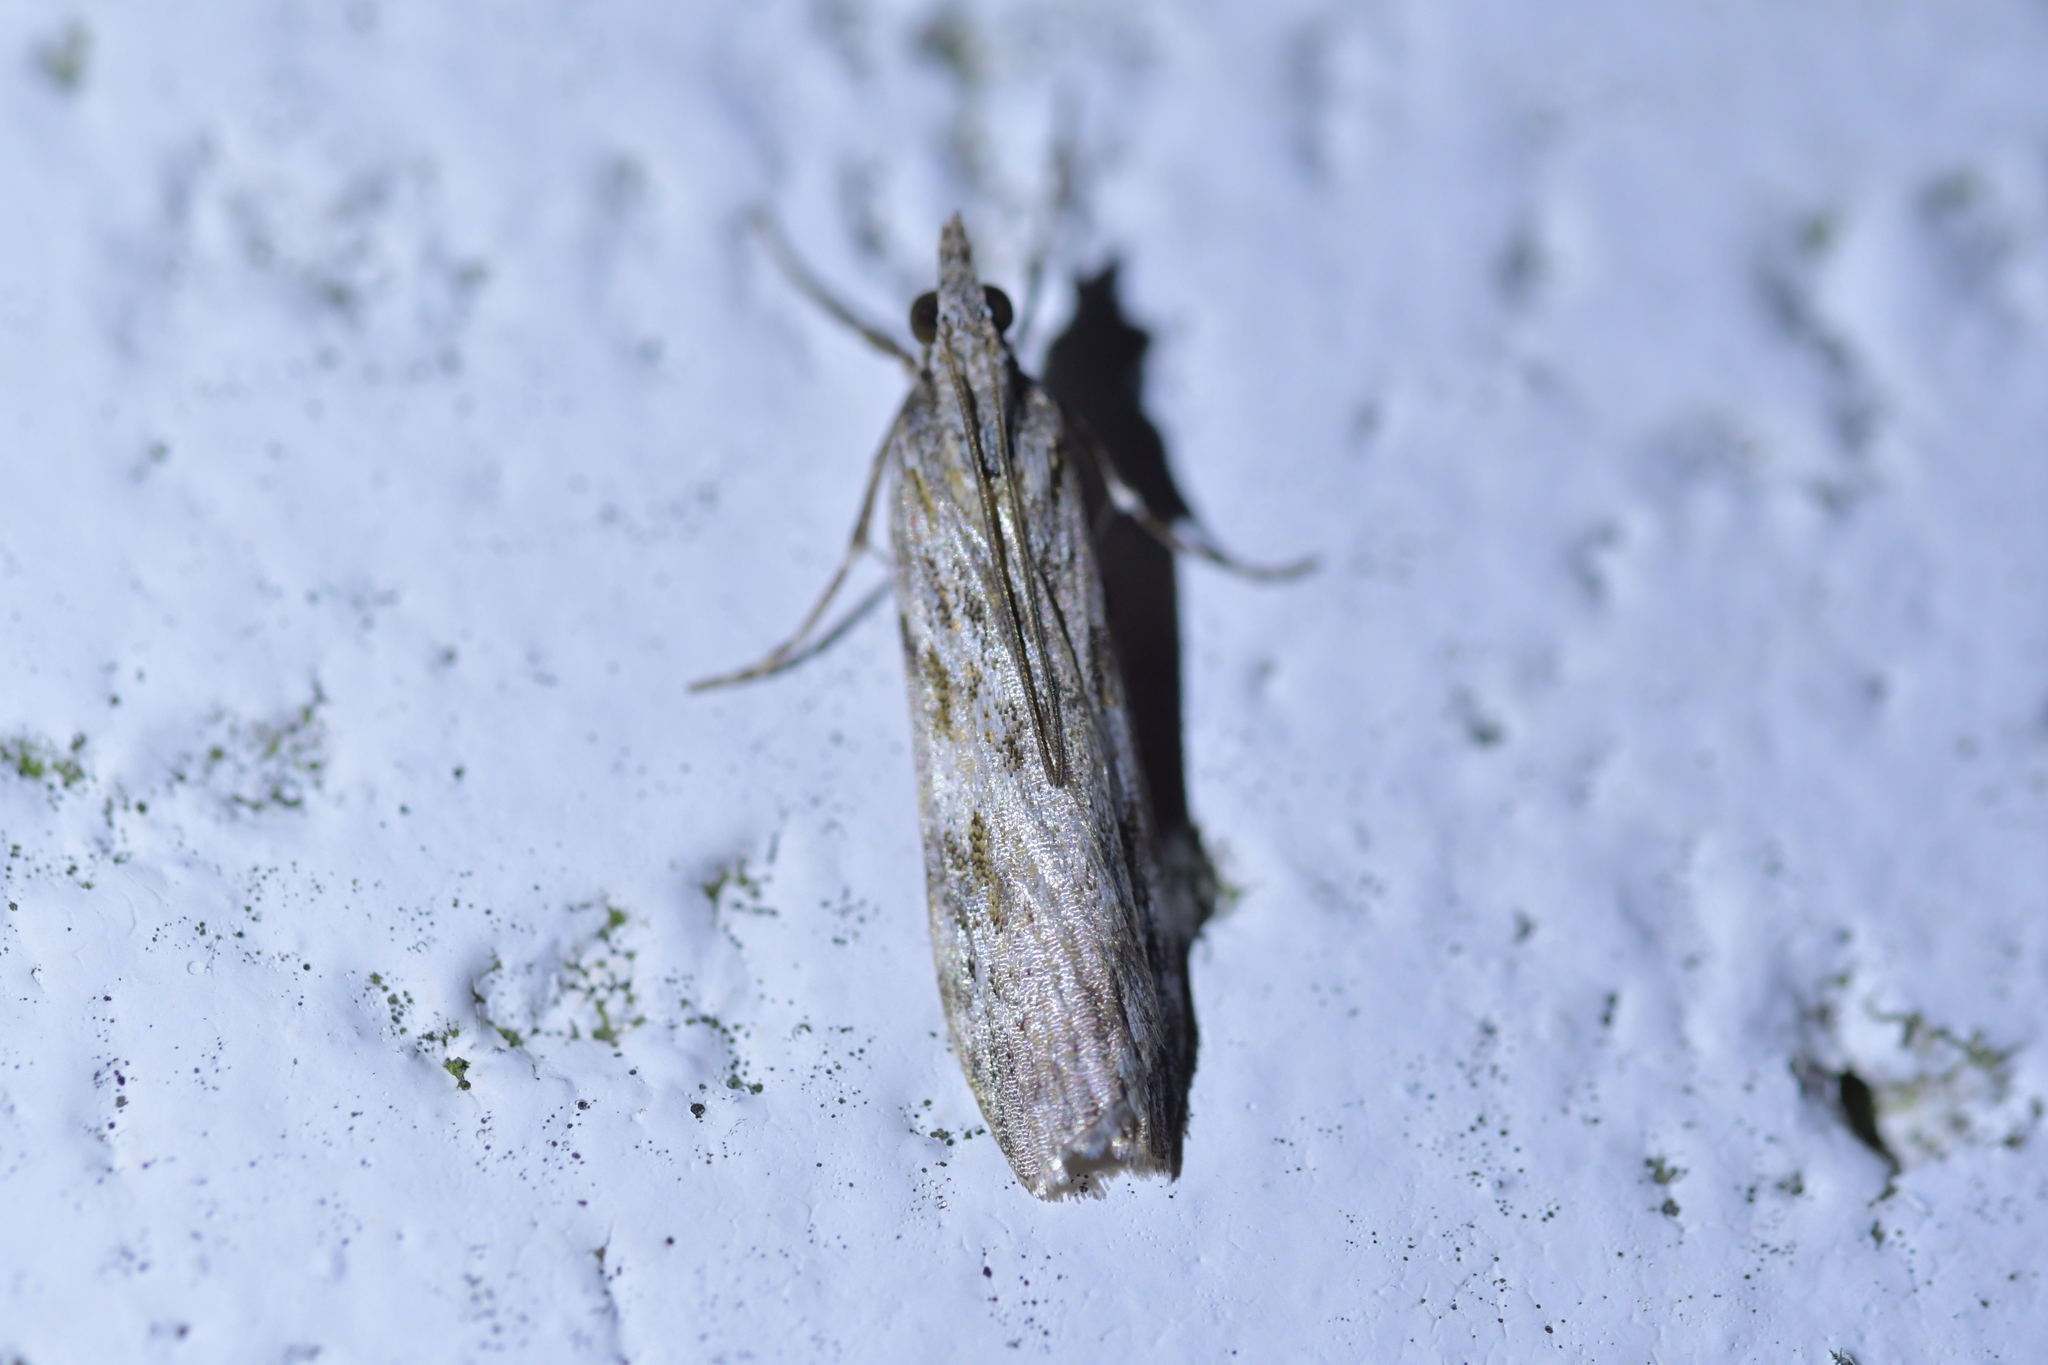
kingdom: Animalia
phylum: Arthropoda
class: Insecta
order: Lepidoptera
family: Crambidae
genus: Scoparia
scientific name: Scoparia halopis
